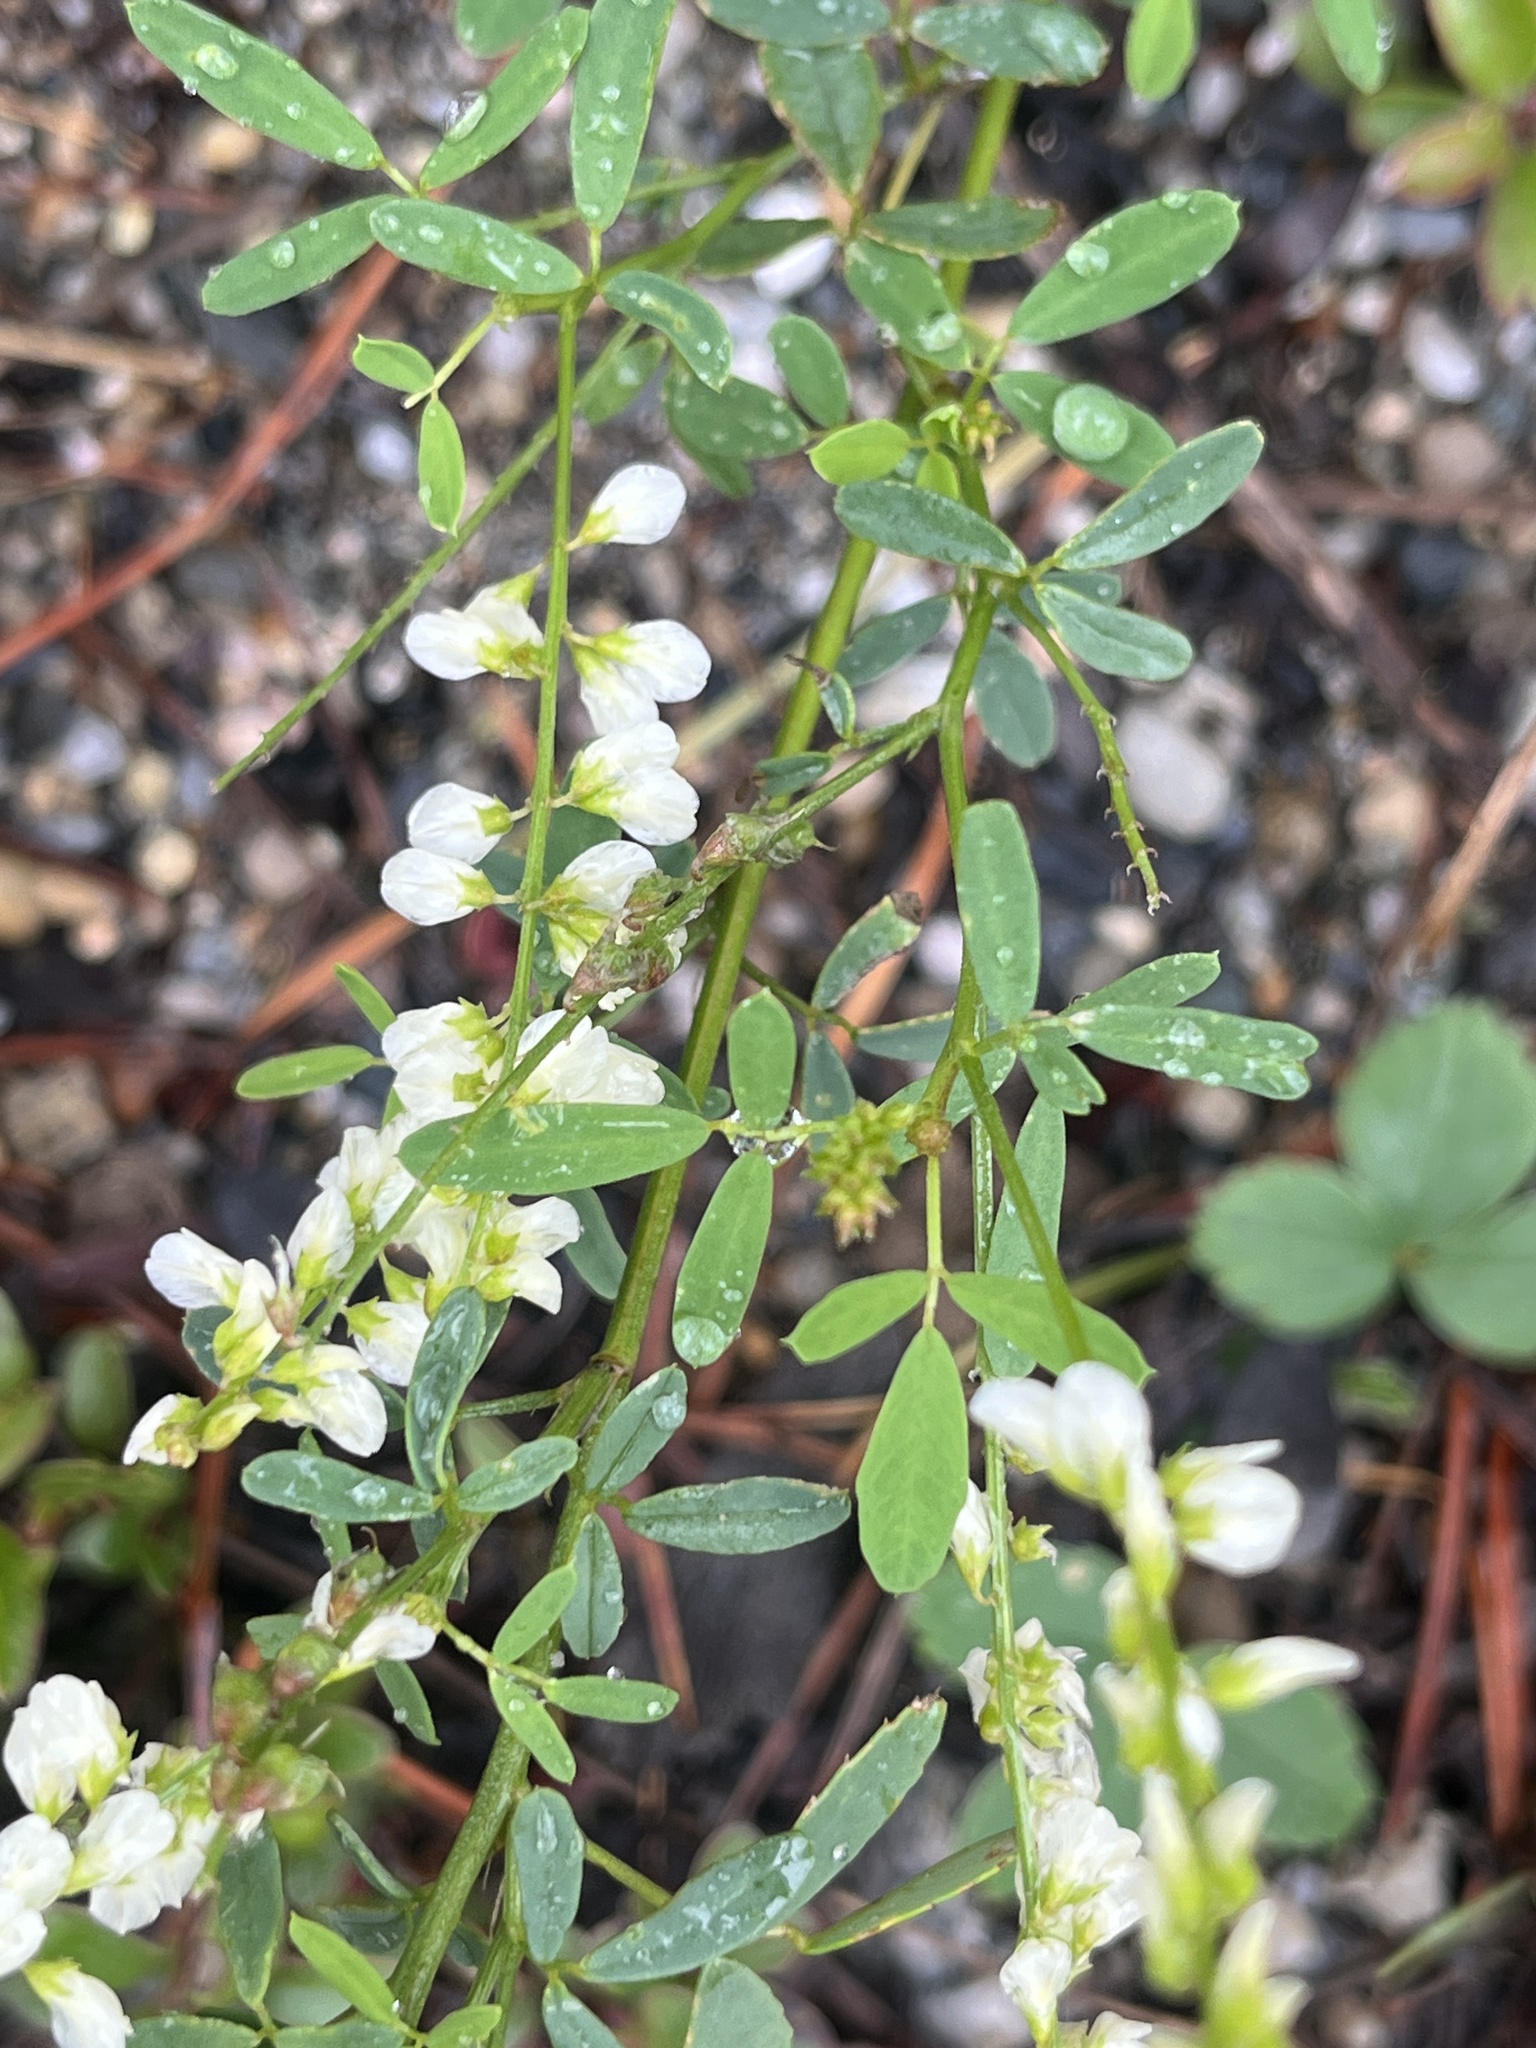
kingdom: Plantae
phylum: Tracheophyta
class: Magnoliopsida
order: Fabales
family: Fabaceae
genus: Melilotus
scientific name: Melilotus albus
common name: White melilot
